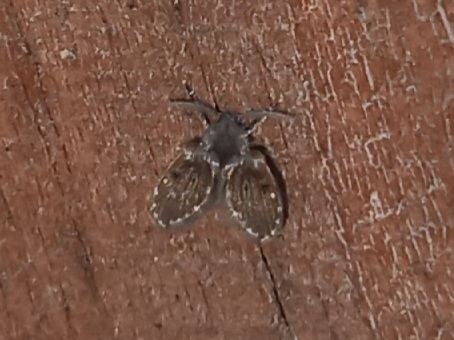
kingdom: Animalia
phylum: Arthropoda
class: Insecta
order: Diptera
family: Psychodidae
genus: Clogmia
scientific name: Clogmia albipunctatus
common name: White-spotted moth fly
